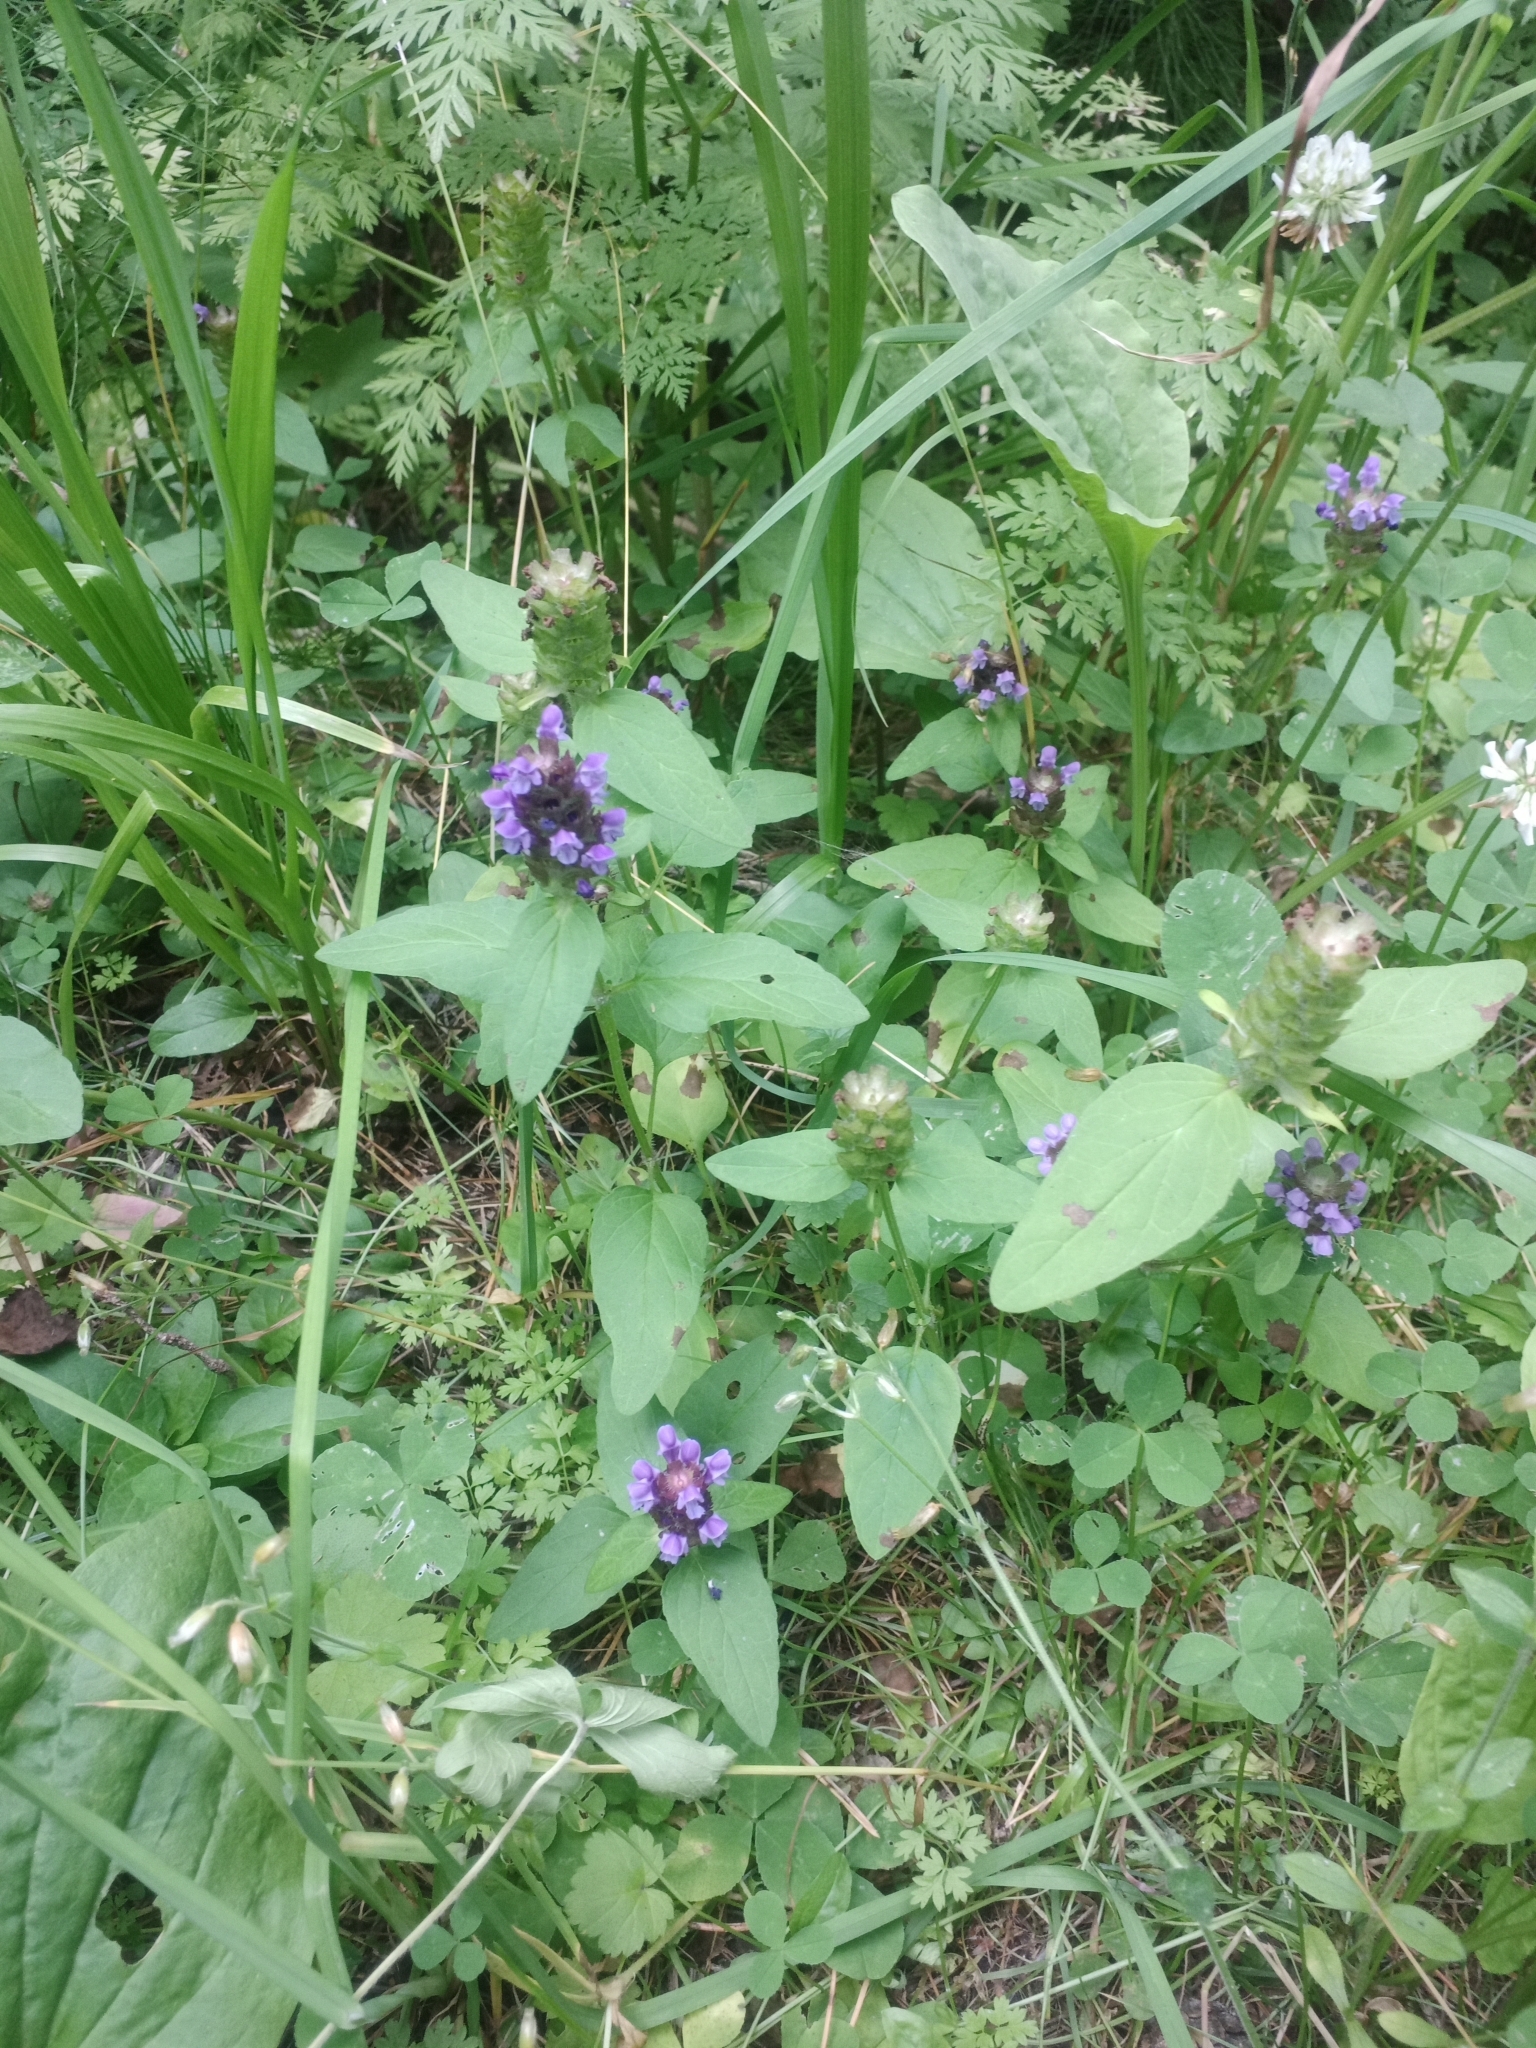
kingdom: Plantae
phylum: Tracheophyta
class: Magnoliopsida
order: Lamiales
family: Lamiaceae
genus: Prunella
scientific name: Prunella vulgaris
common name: Heal-all
